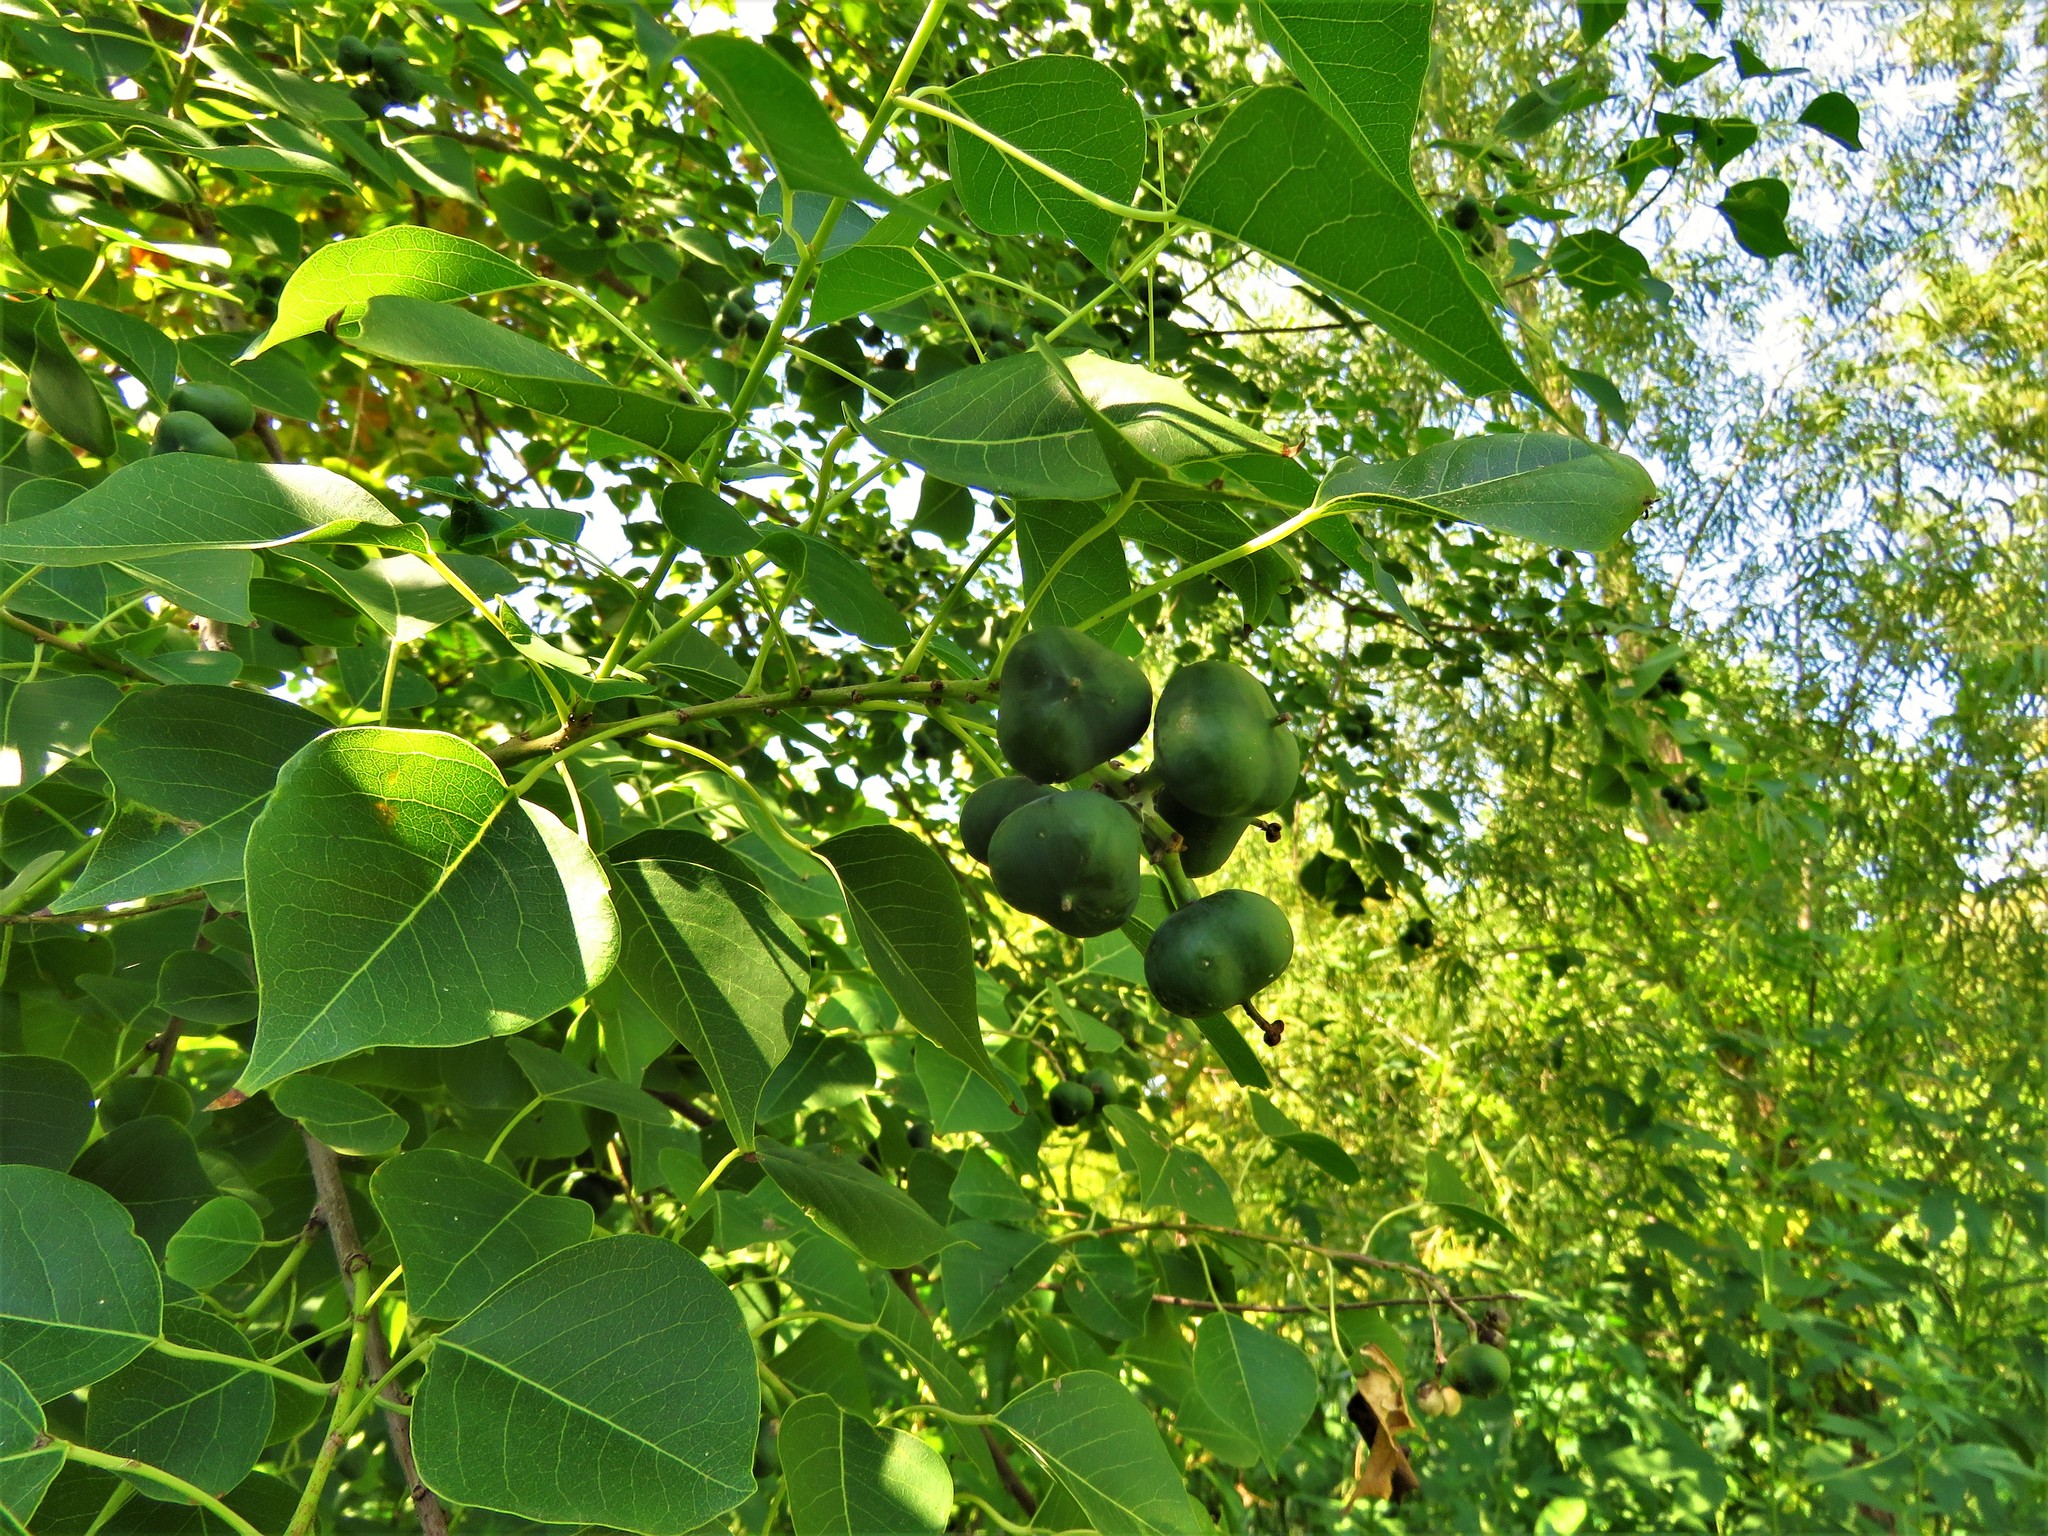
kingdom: Plantae
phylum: Tracheophyta
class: Magnoliopsida
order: Malpighiales
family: Euphorbiaceae
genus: Triadica
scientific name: Triadica sebifera
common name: Chinese tallow
